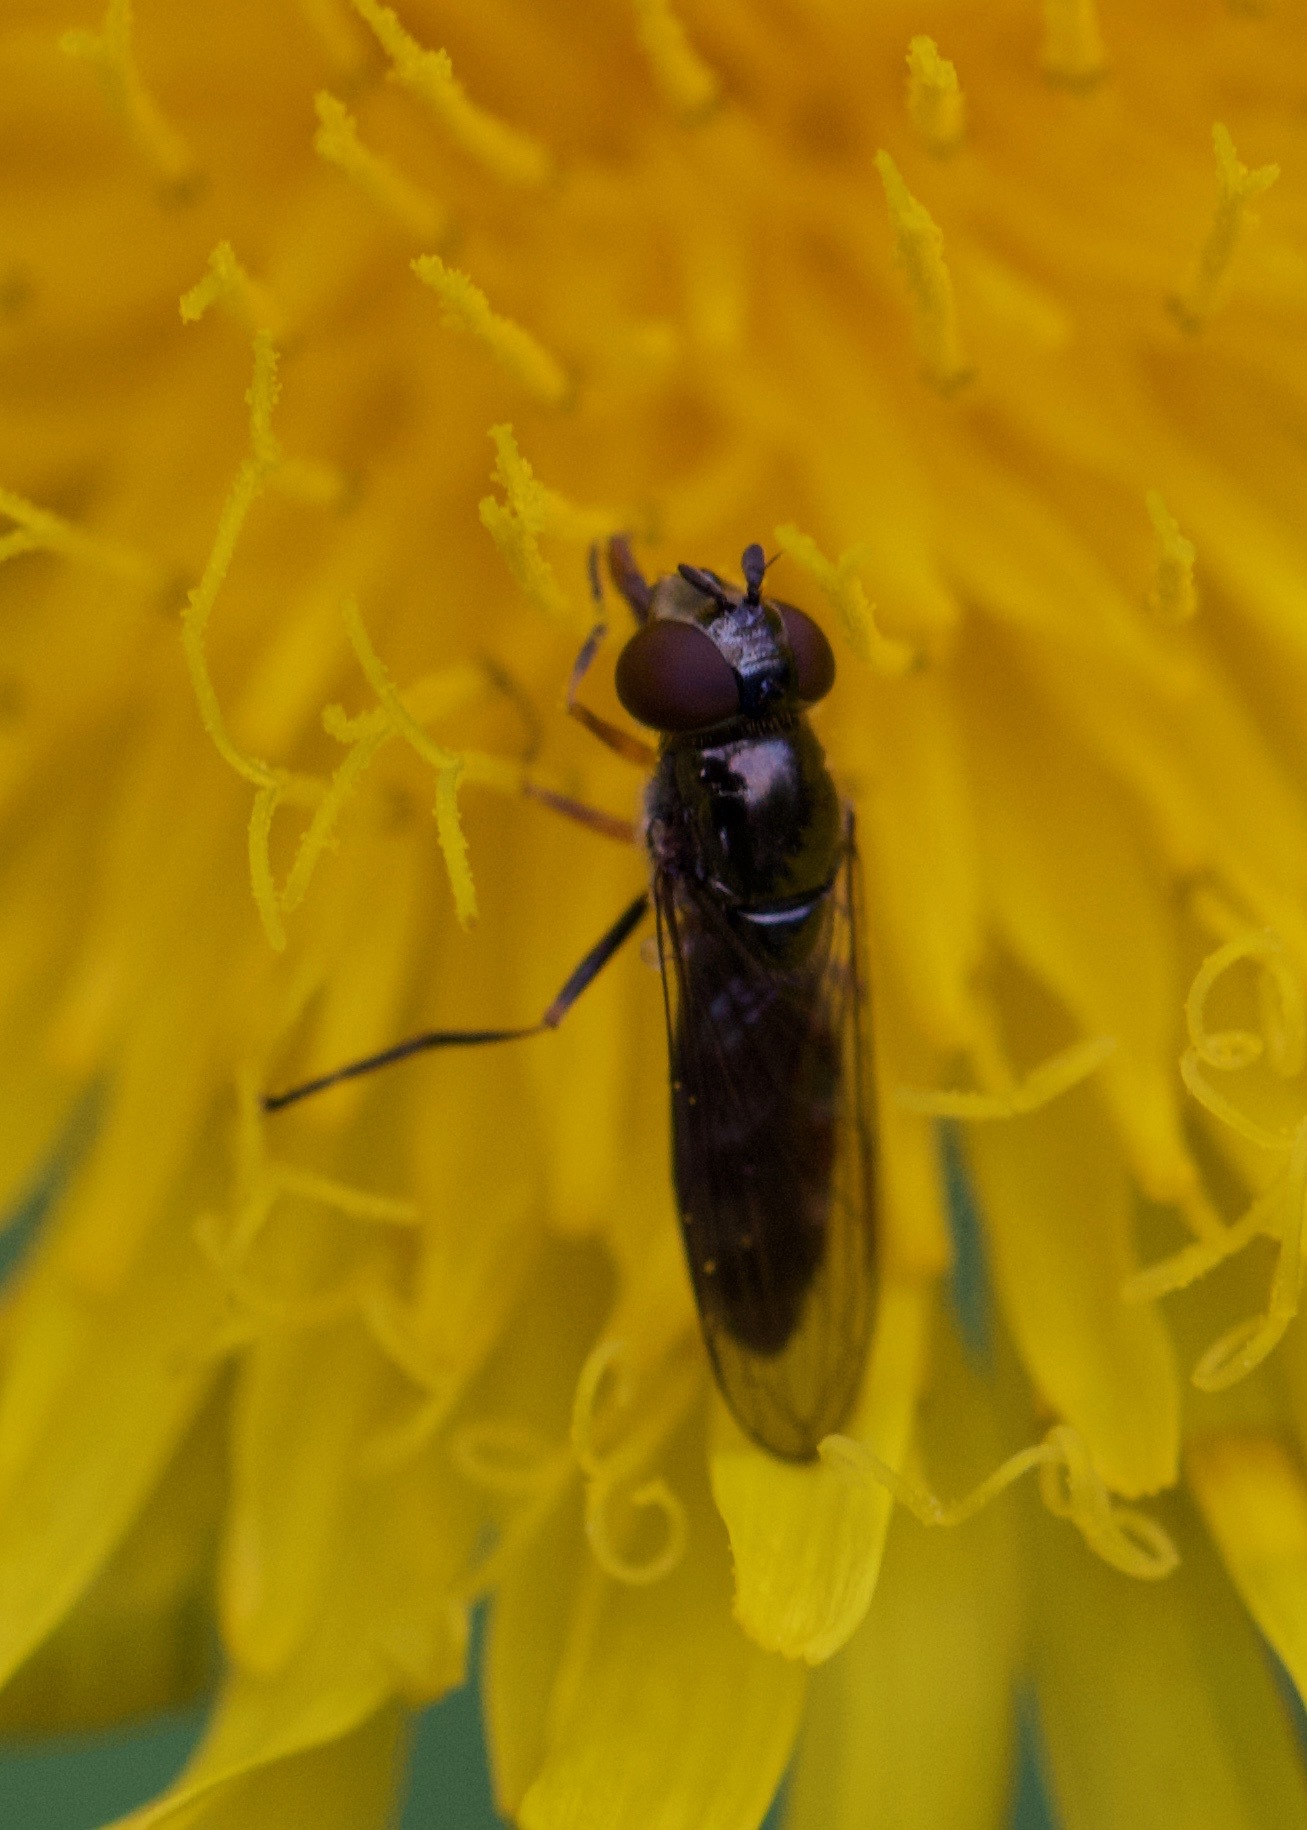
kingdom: Animalia
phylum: Arthropoda
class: Insecta
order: Diptera
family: Syrphidae
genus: Platycheirus
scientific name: Platycheirus albimanus
